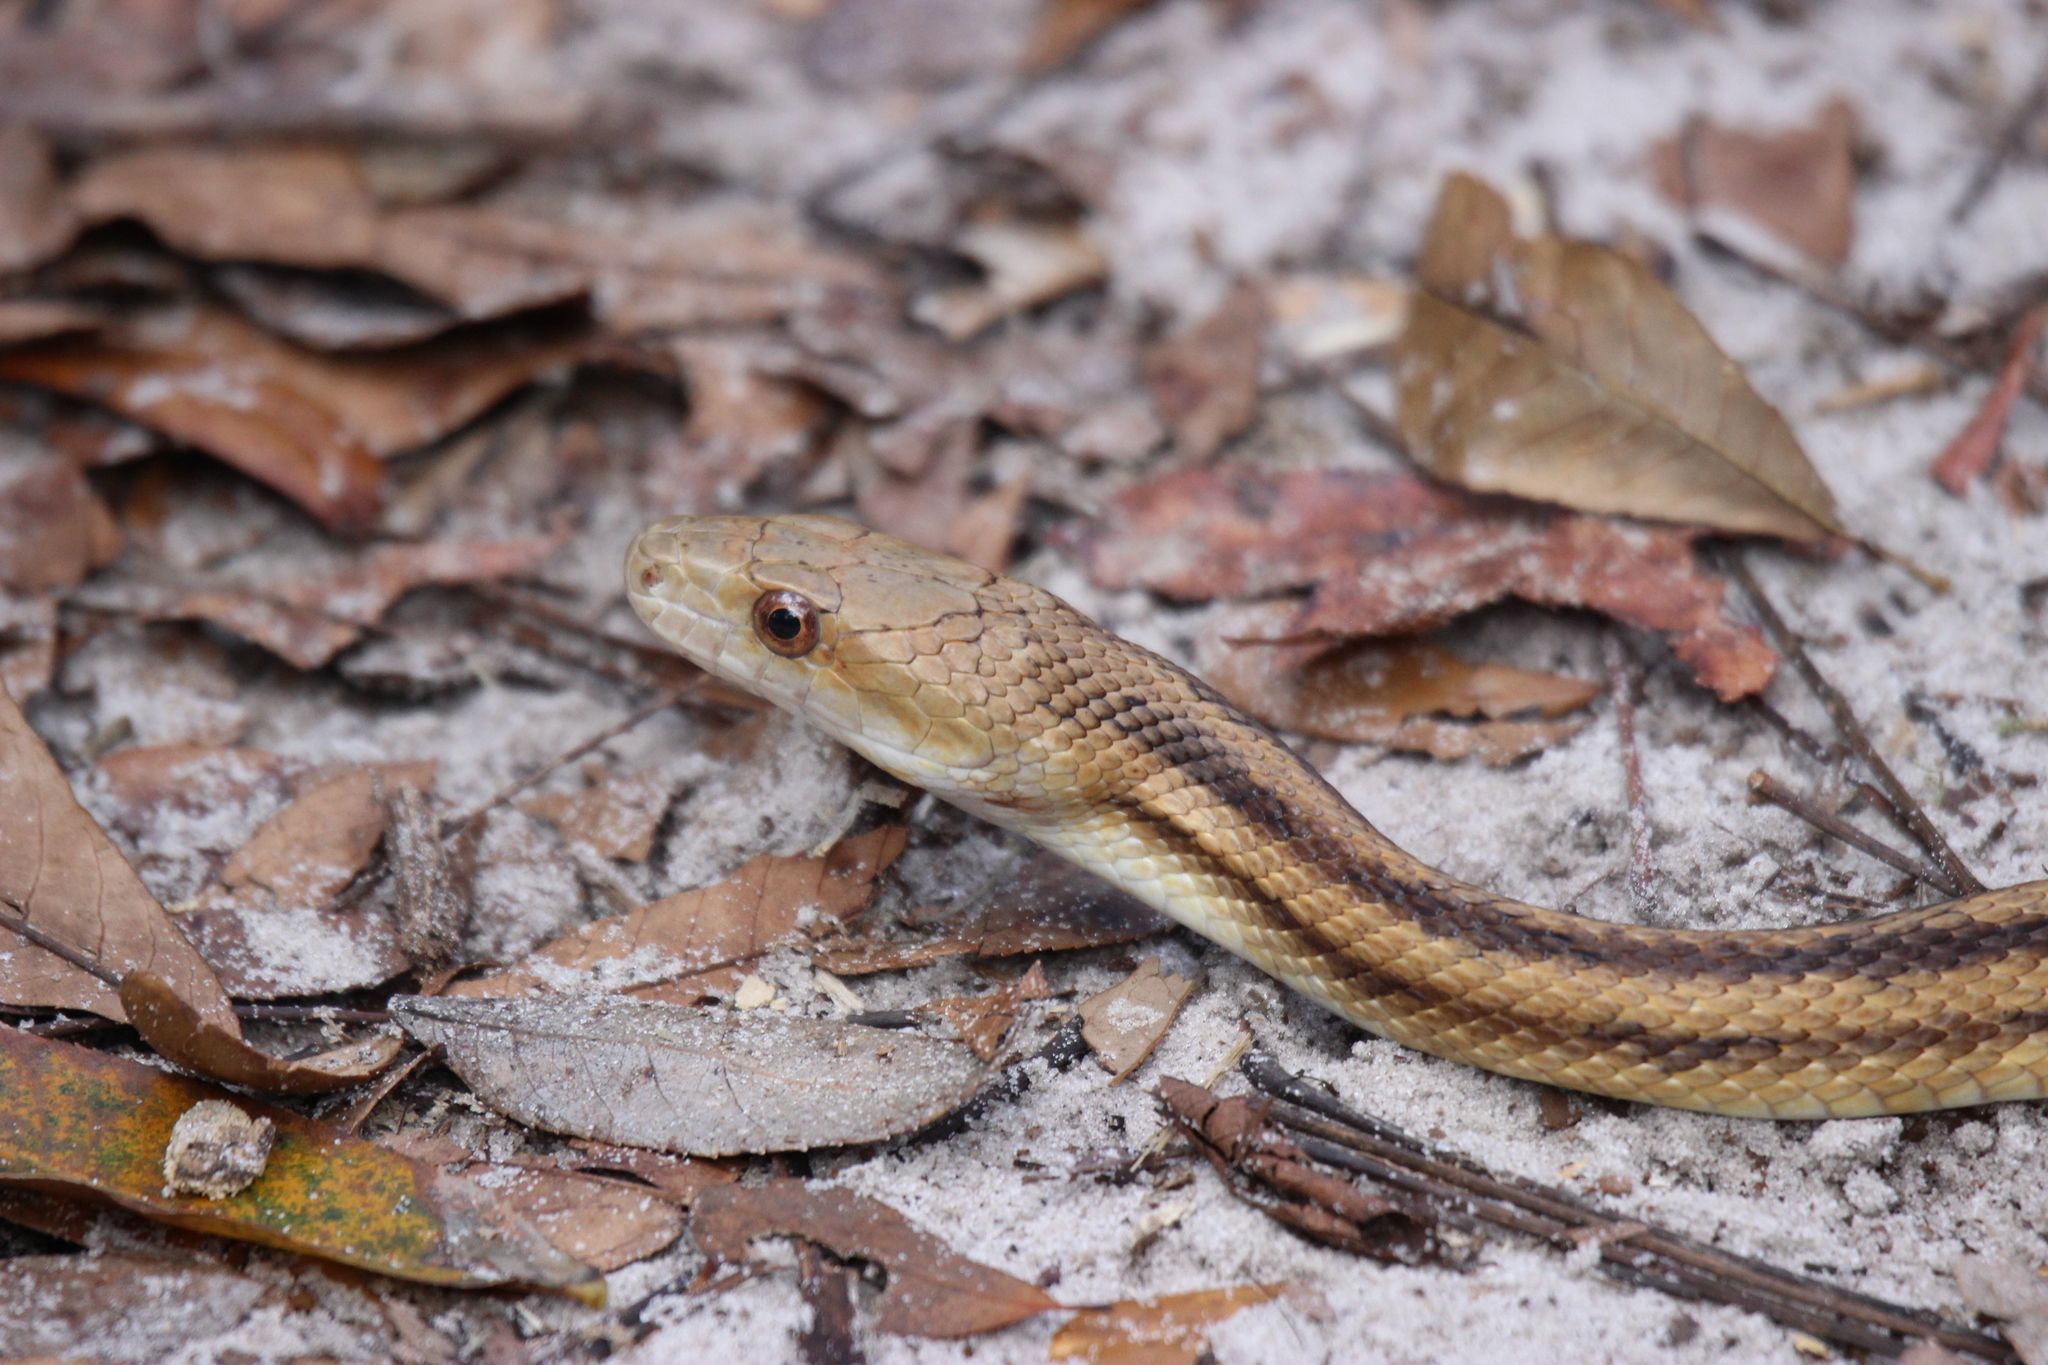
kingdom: Animalia
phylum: Chordata
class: Squamata
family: Colubridae
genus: Pantherophis
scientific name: Pantherophis alleghaniensis
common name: Eastern rat snake
